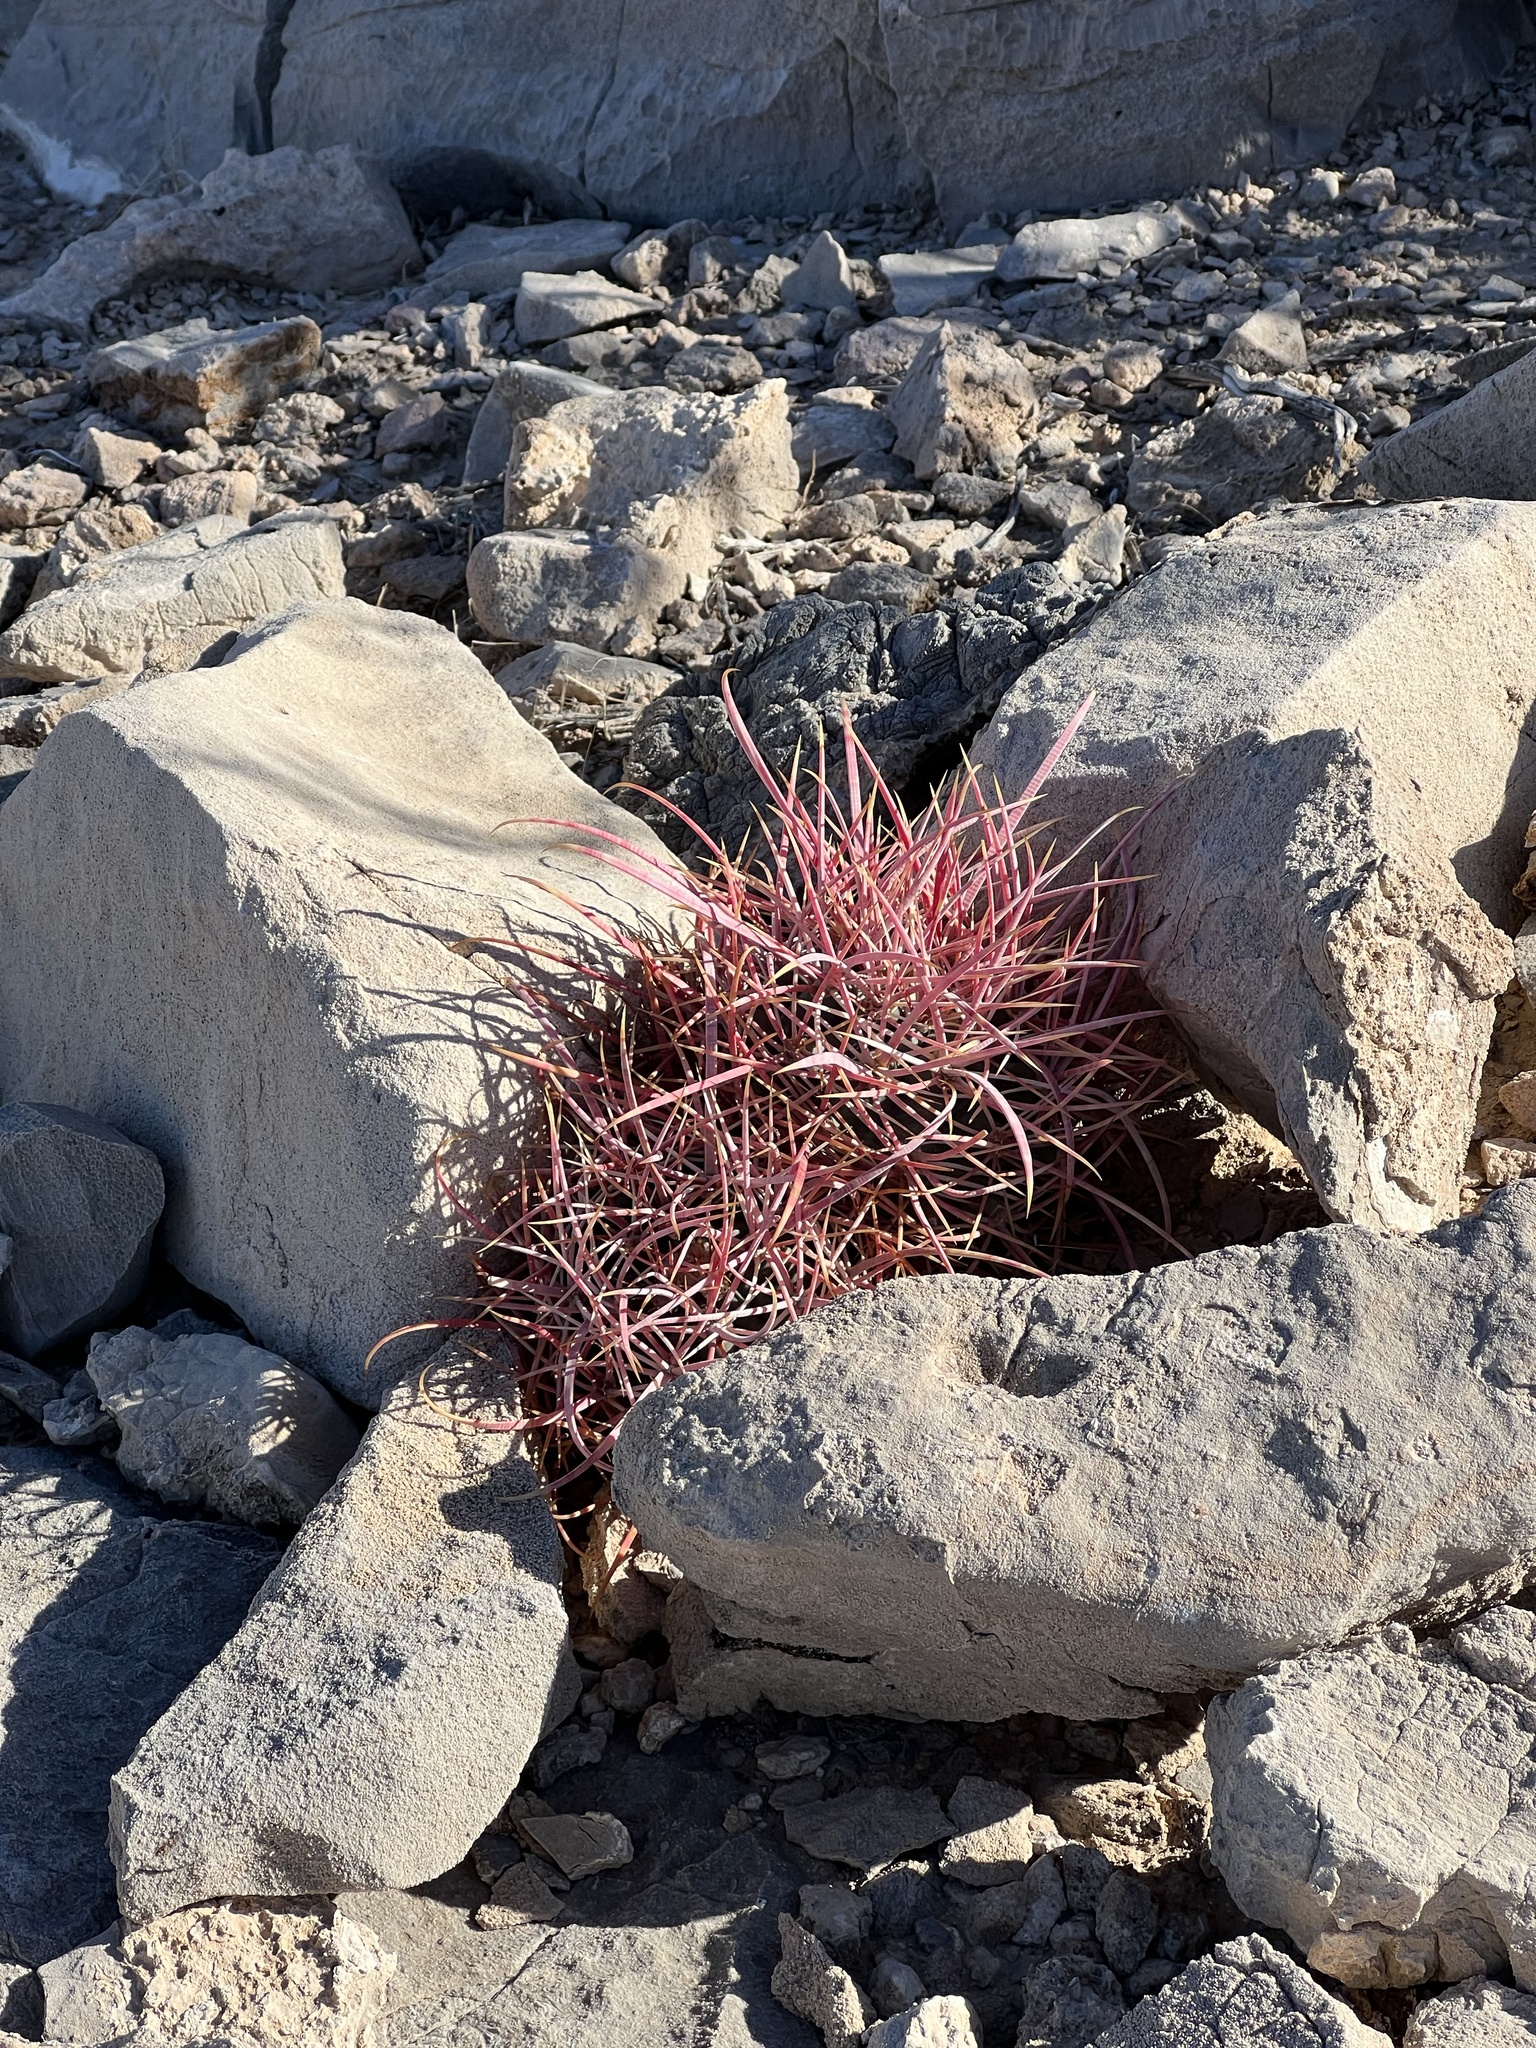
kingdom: Plantae
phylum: Tracheophyta
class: Magnoliopsida
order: Caryophyllales
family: Cactaceae
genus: Ferocactus
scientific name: Ferocactus cylindraceus
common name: California barrel cactus
